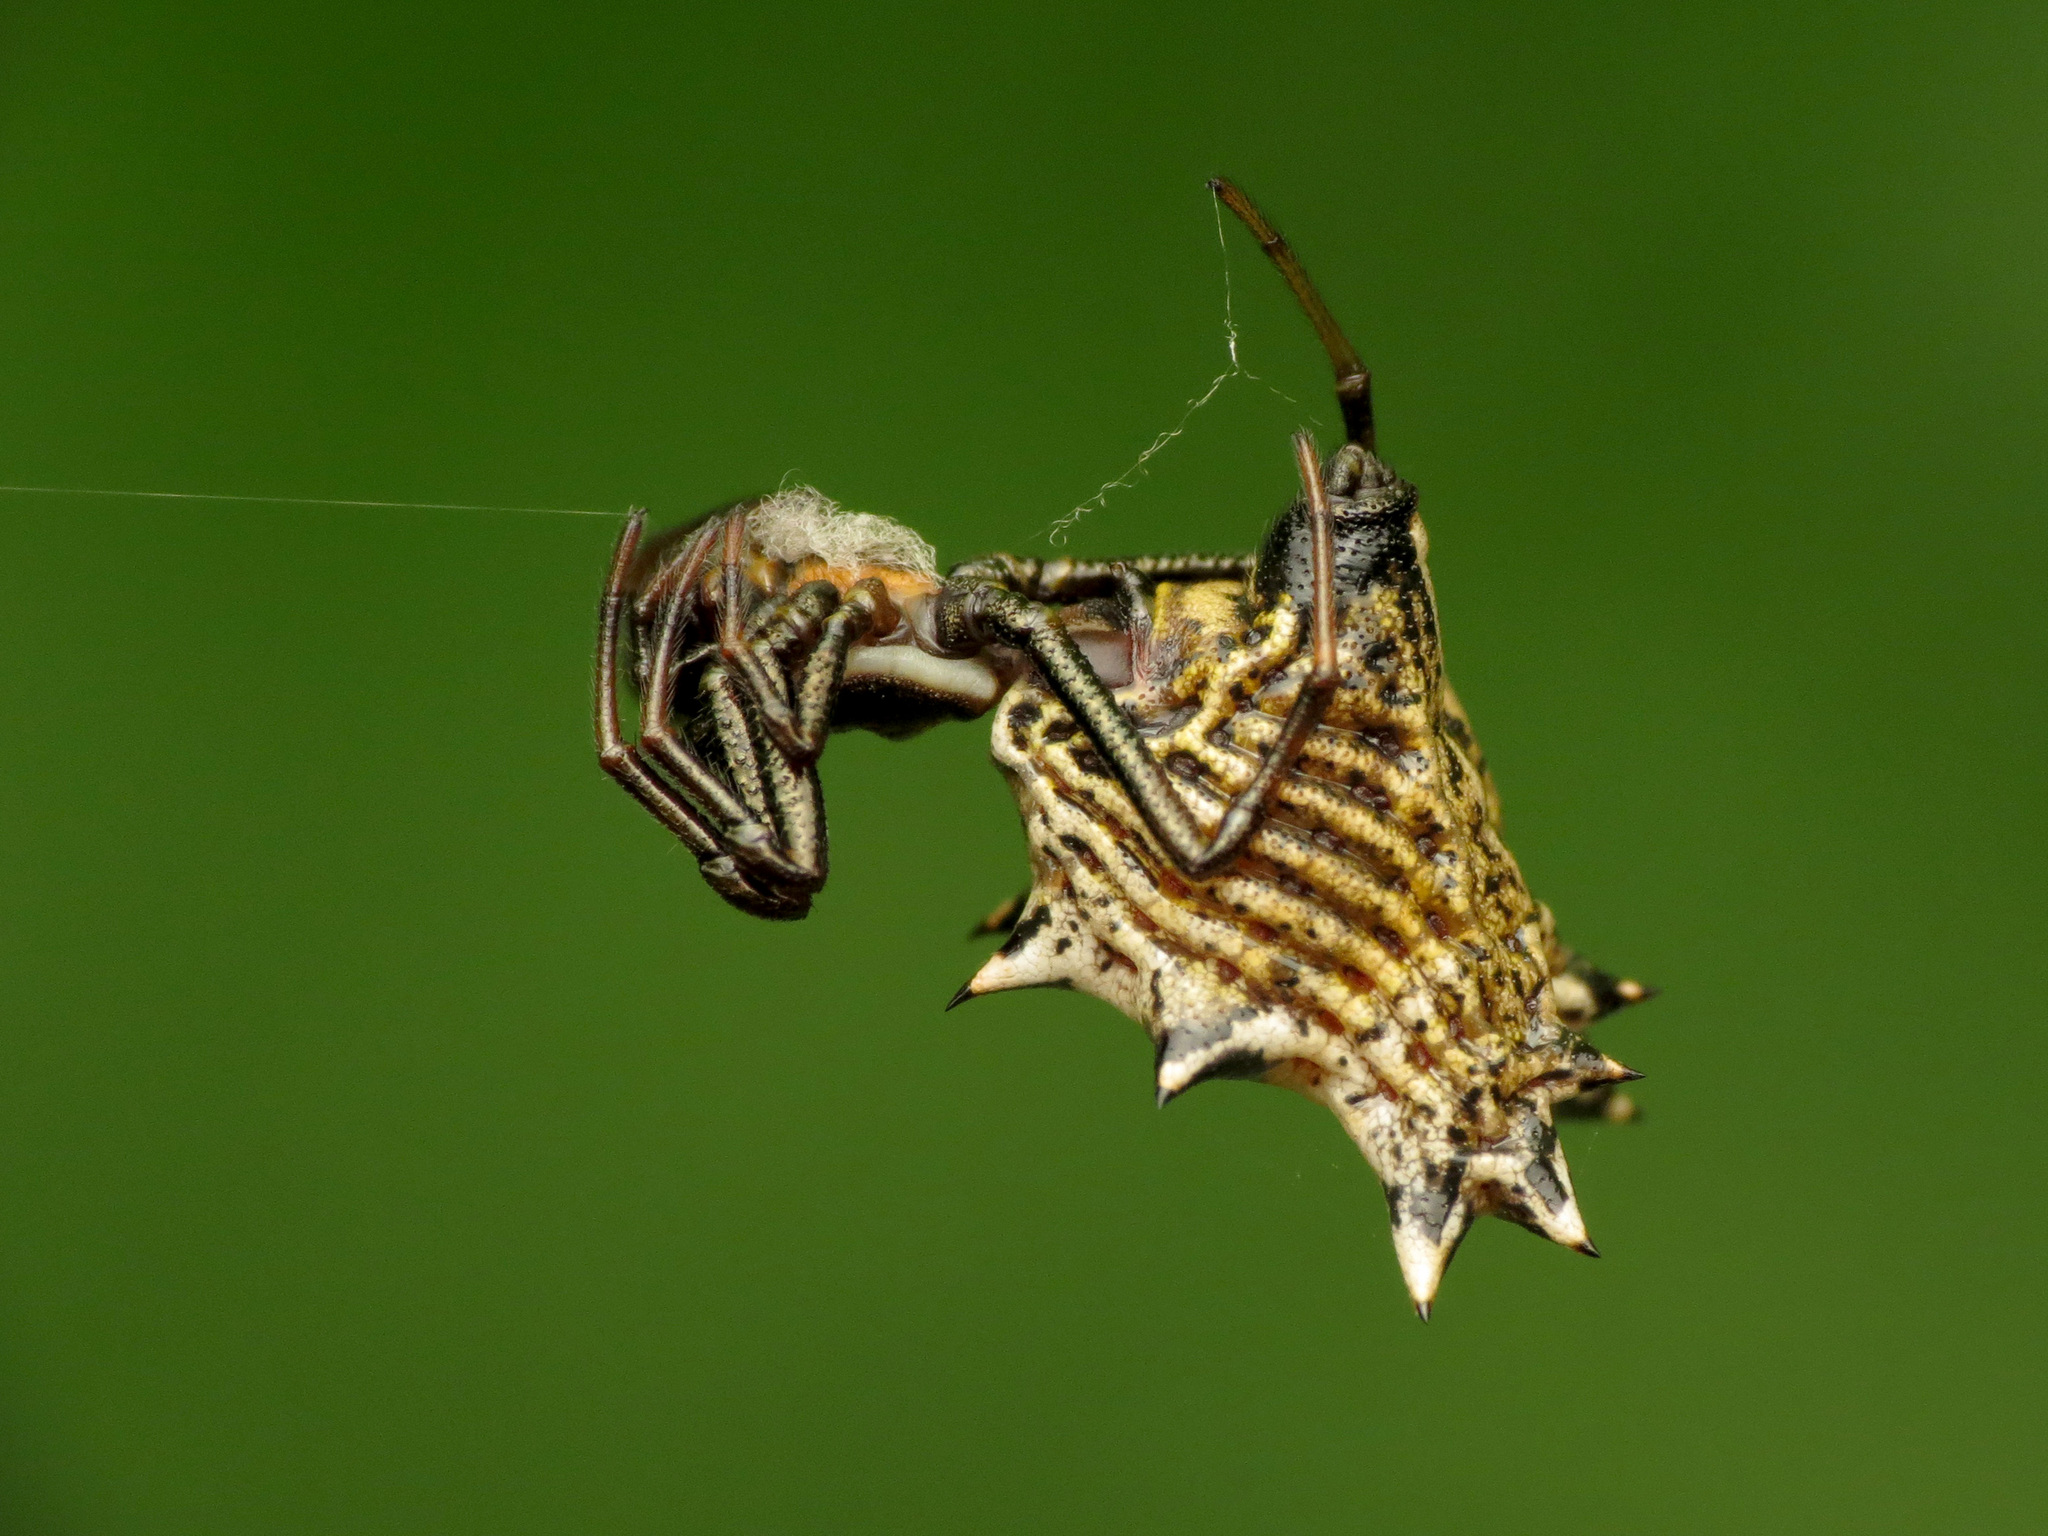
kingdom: Animalia
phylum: Arthropoda
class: Arachnida
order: Araneae
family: Araneidae
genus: Micrathena
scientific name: Micrathena gracilis
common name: Orb weavers
